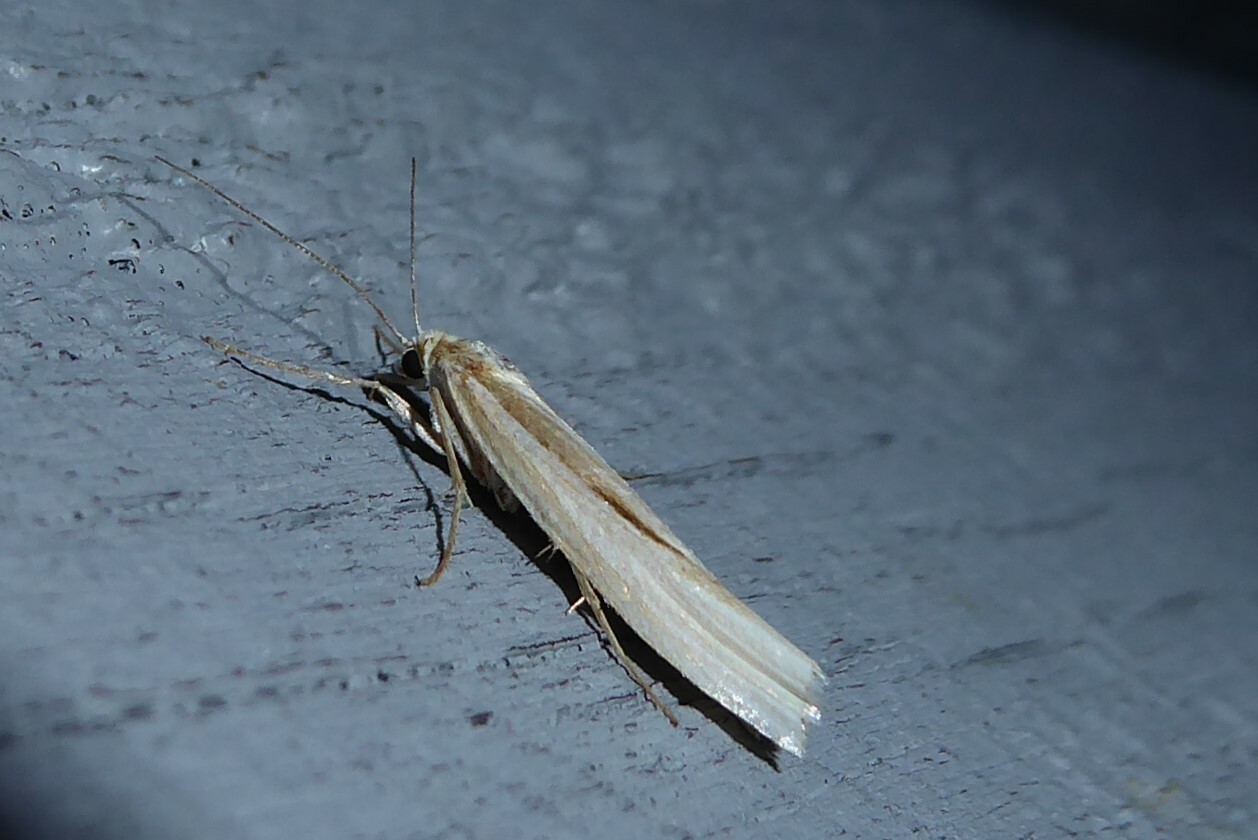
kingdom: Animalia
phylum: Arthropoda
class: Insecta
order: Lepidoptera
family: Crambidae
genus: Orocrambus
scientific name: Orocrambus ramosellus
